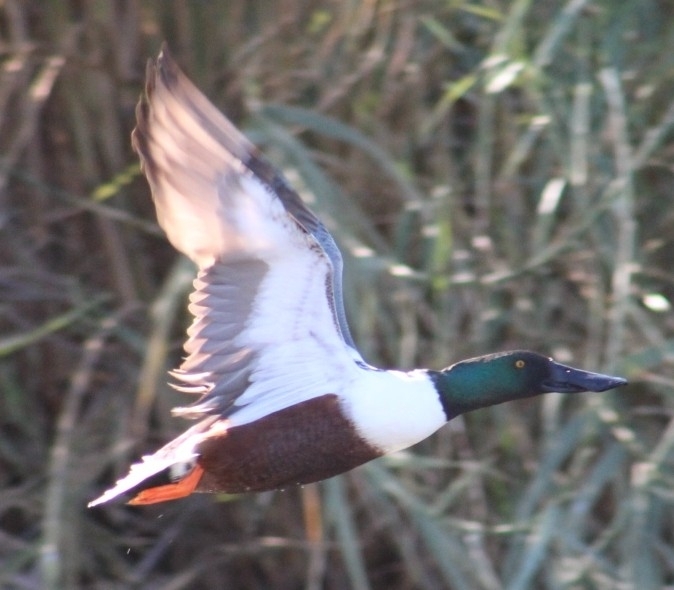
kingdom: Animalia
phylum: Chordata
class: Aves
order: Anseriformes
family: Anatidae
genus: Spatula
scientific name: Spatula clypeata
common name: Northern shoveler
